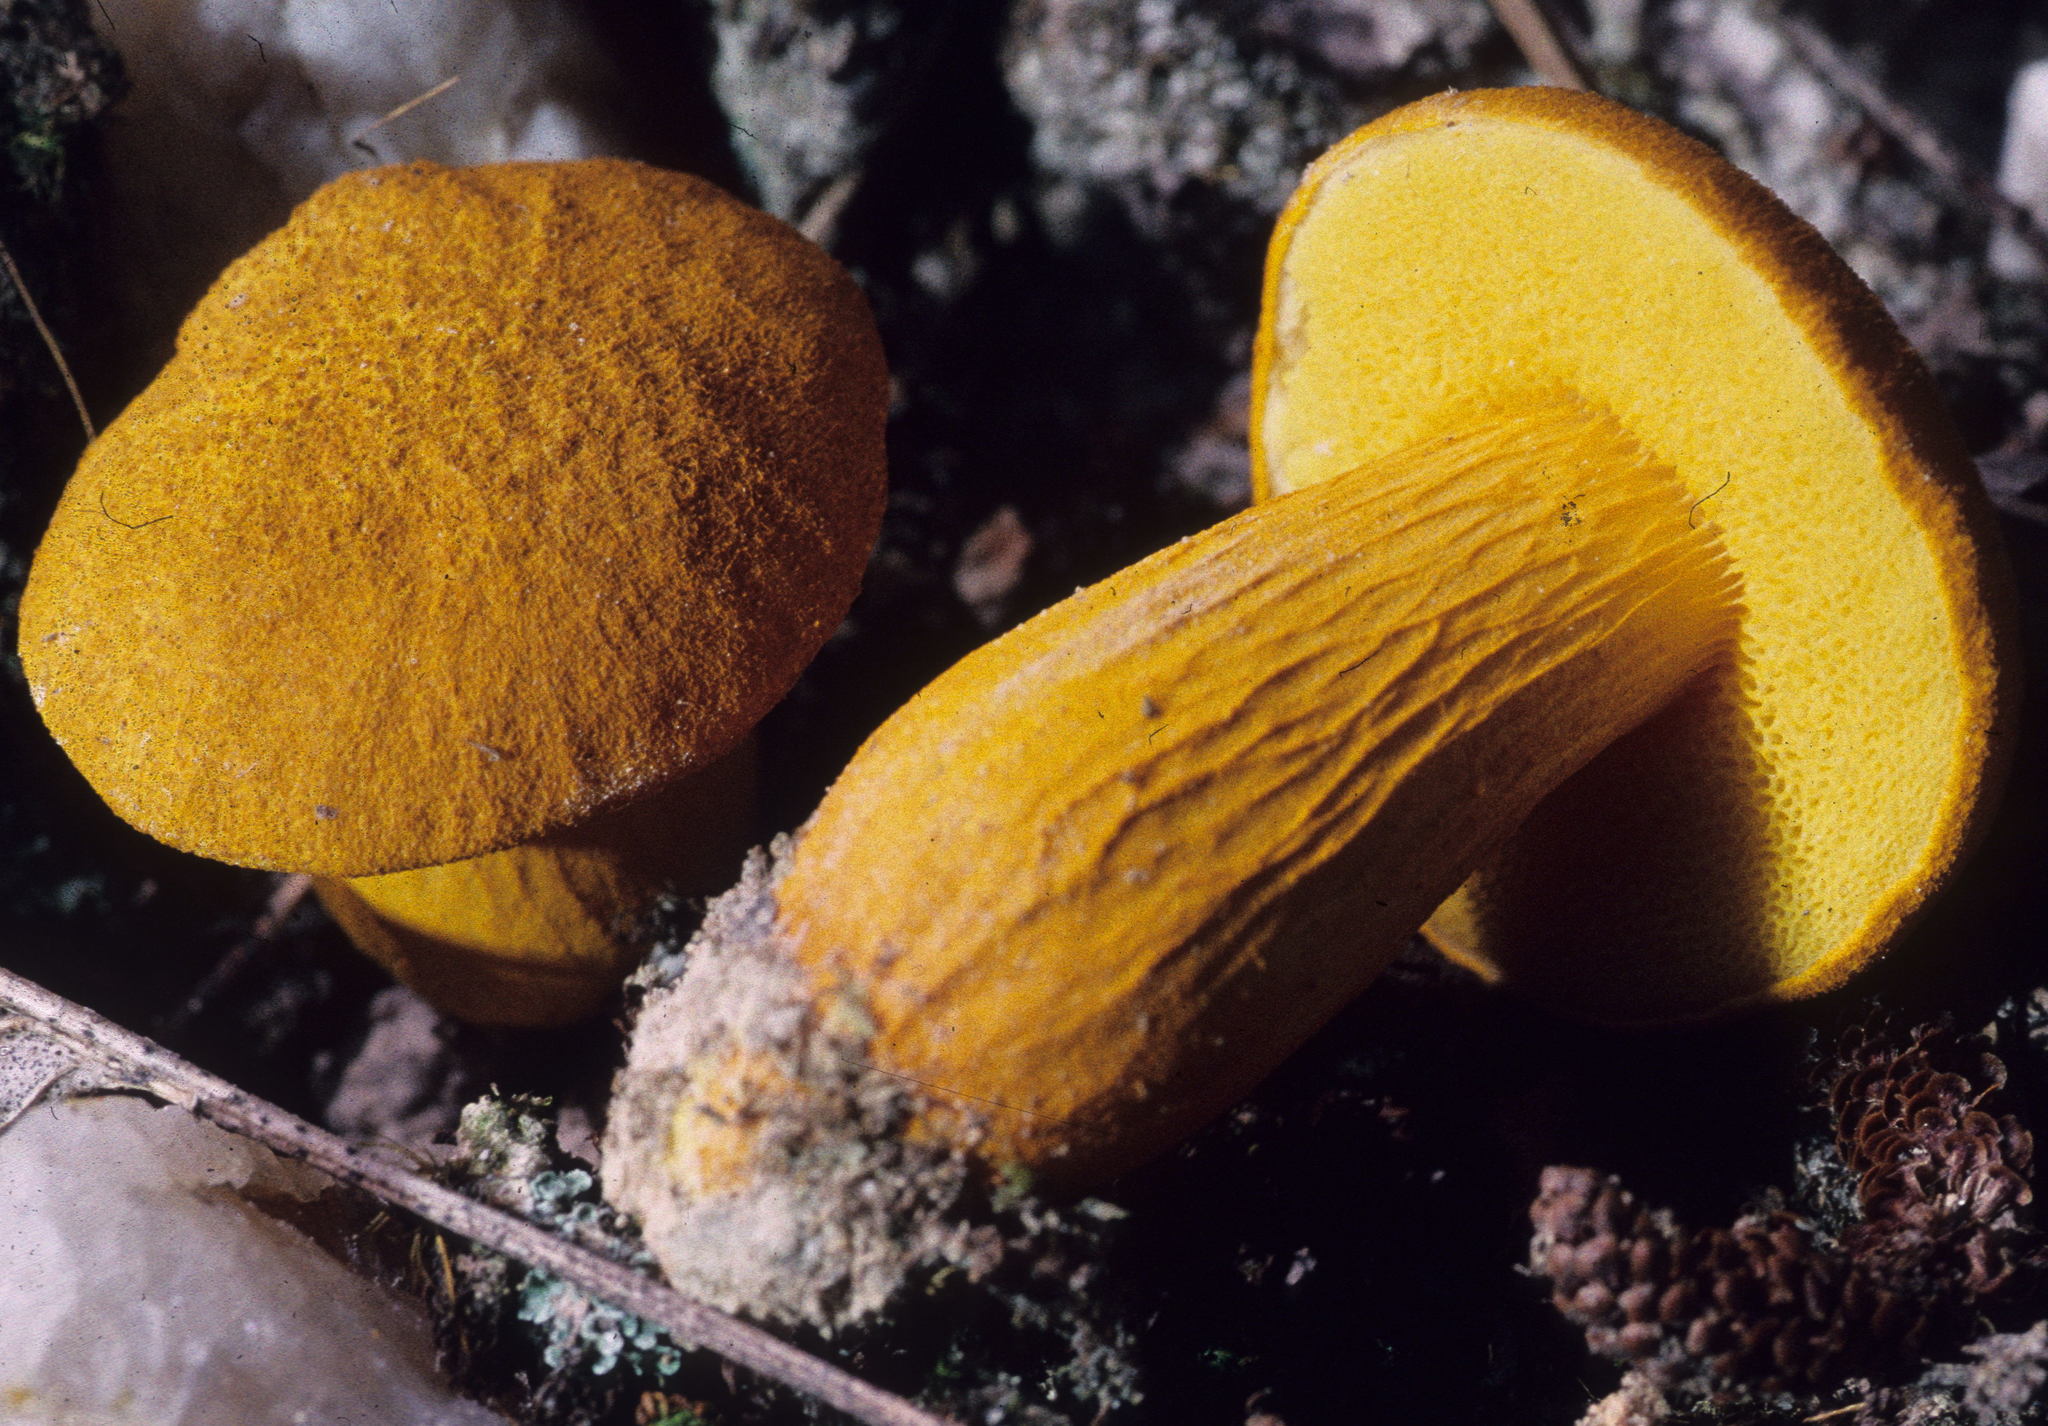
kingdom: Fungi
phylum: Basidiomycota
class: Agaricomycetes
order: Boletales
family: Boletaceae
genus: Aureoboletus
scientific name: Aureoboletus auriflammeus
